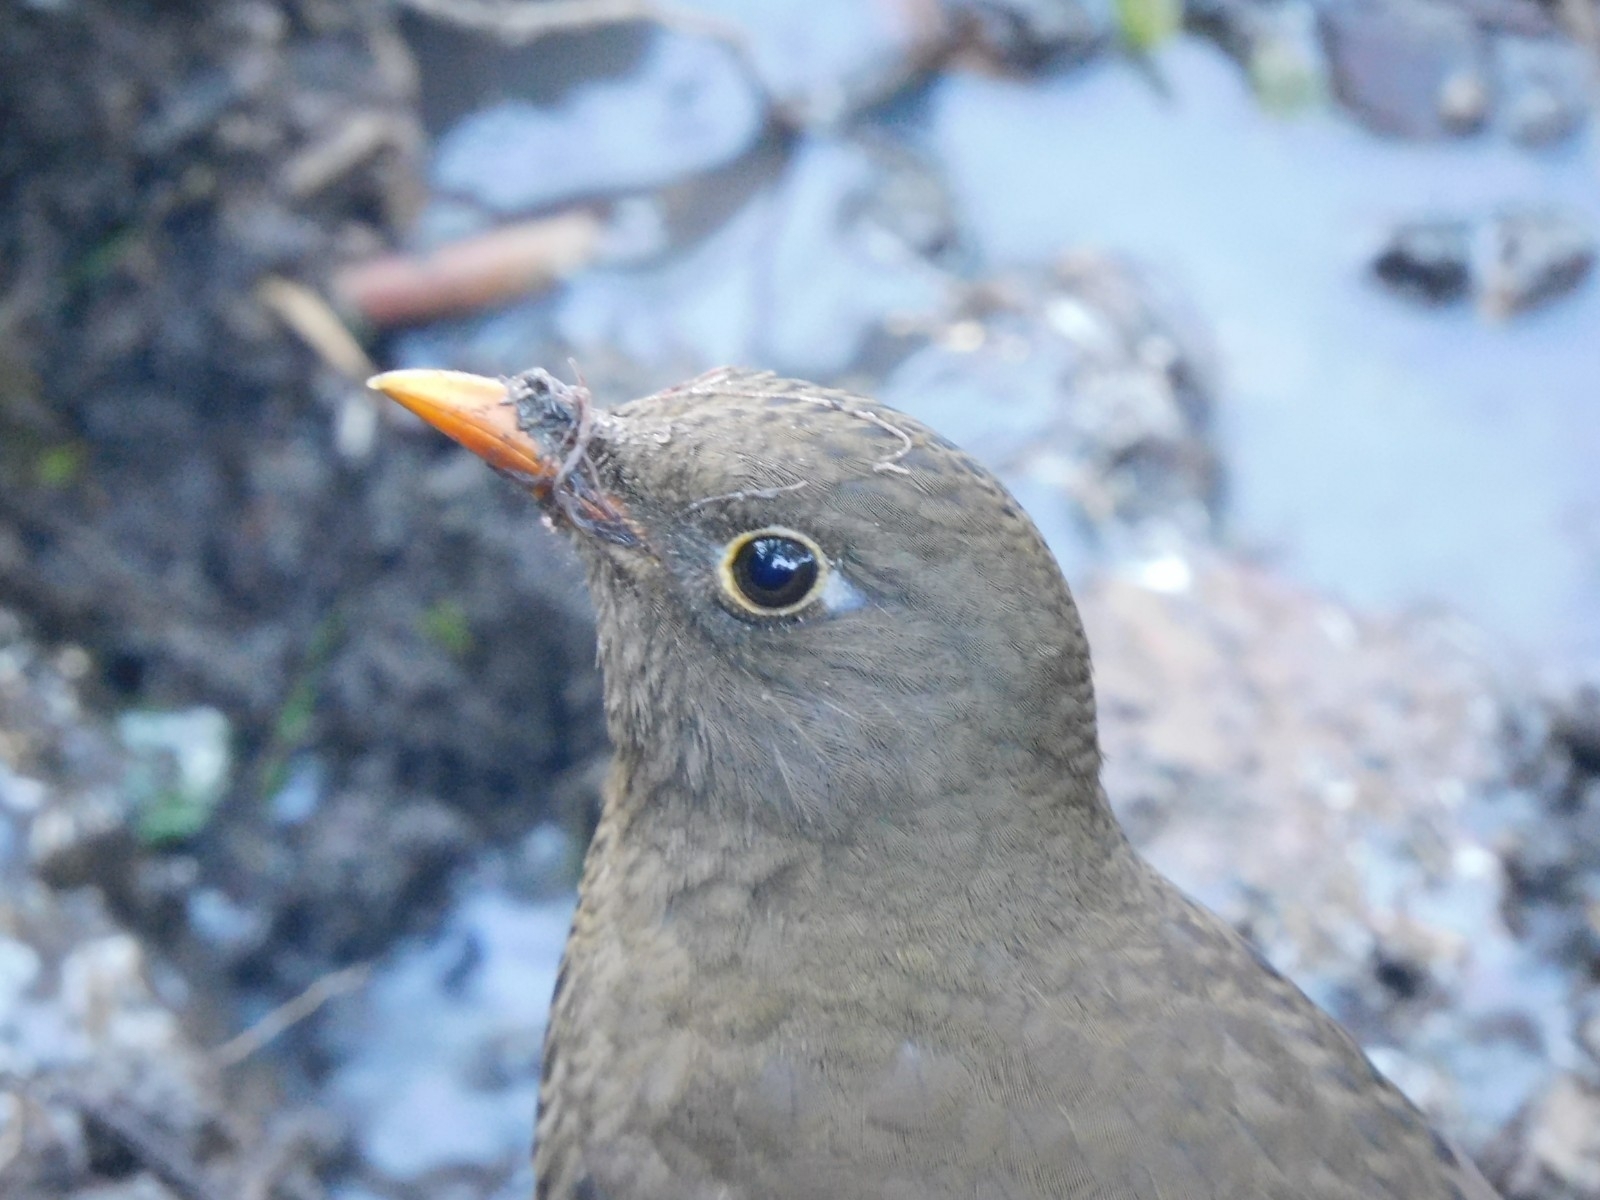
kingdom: Animalia
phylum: Chordata
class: Aves
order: Passeriformes
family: Turdidae
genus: Turdus
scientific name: Turdus boulboul
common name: Grey-winged blackbird
